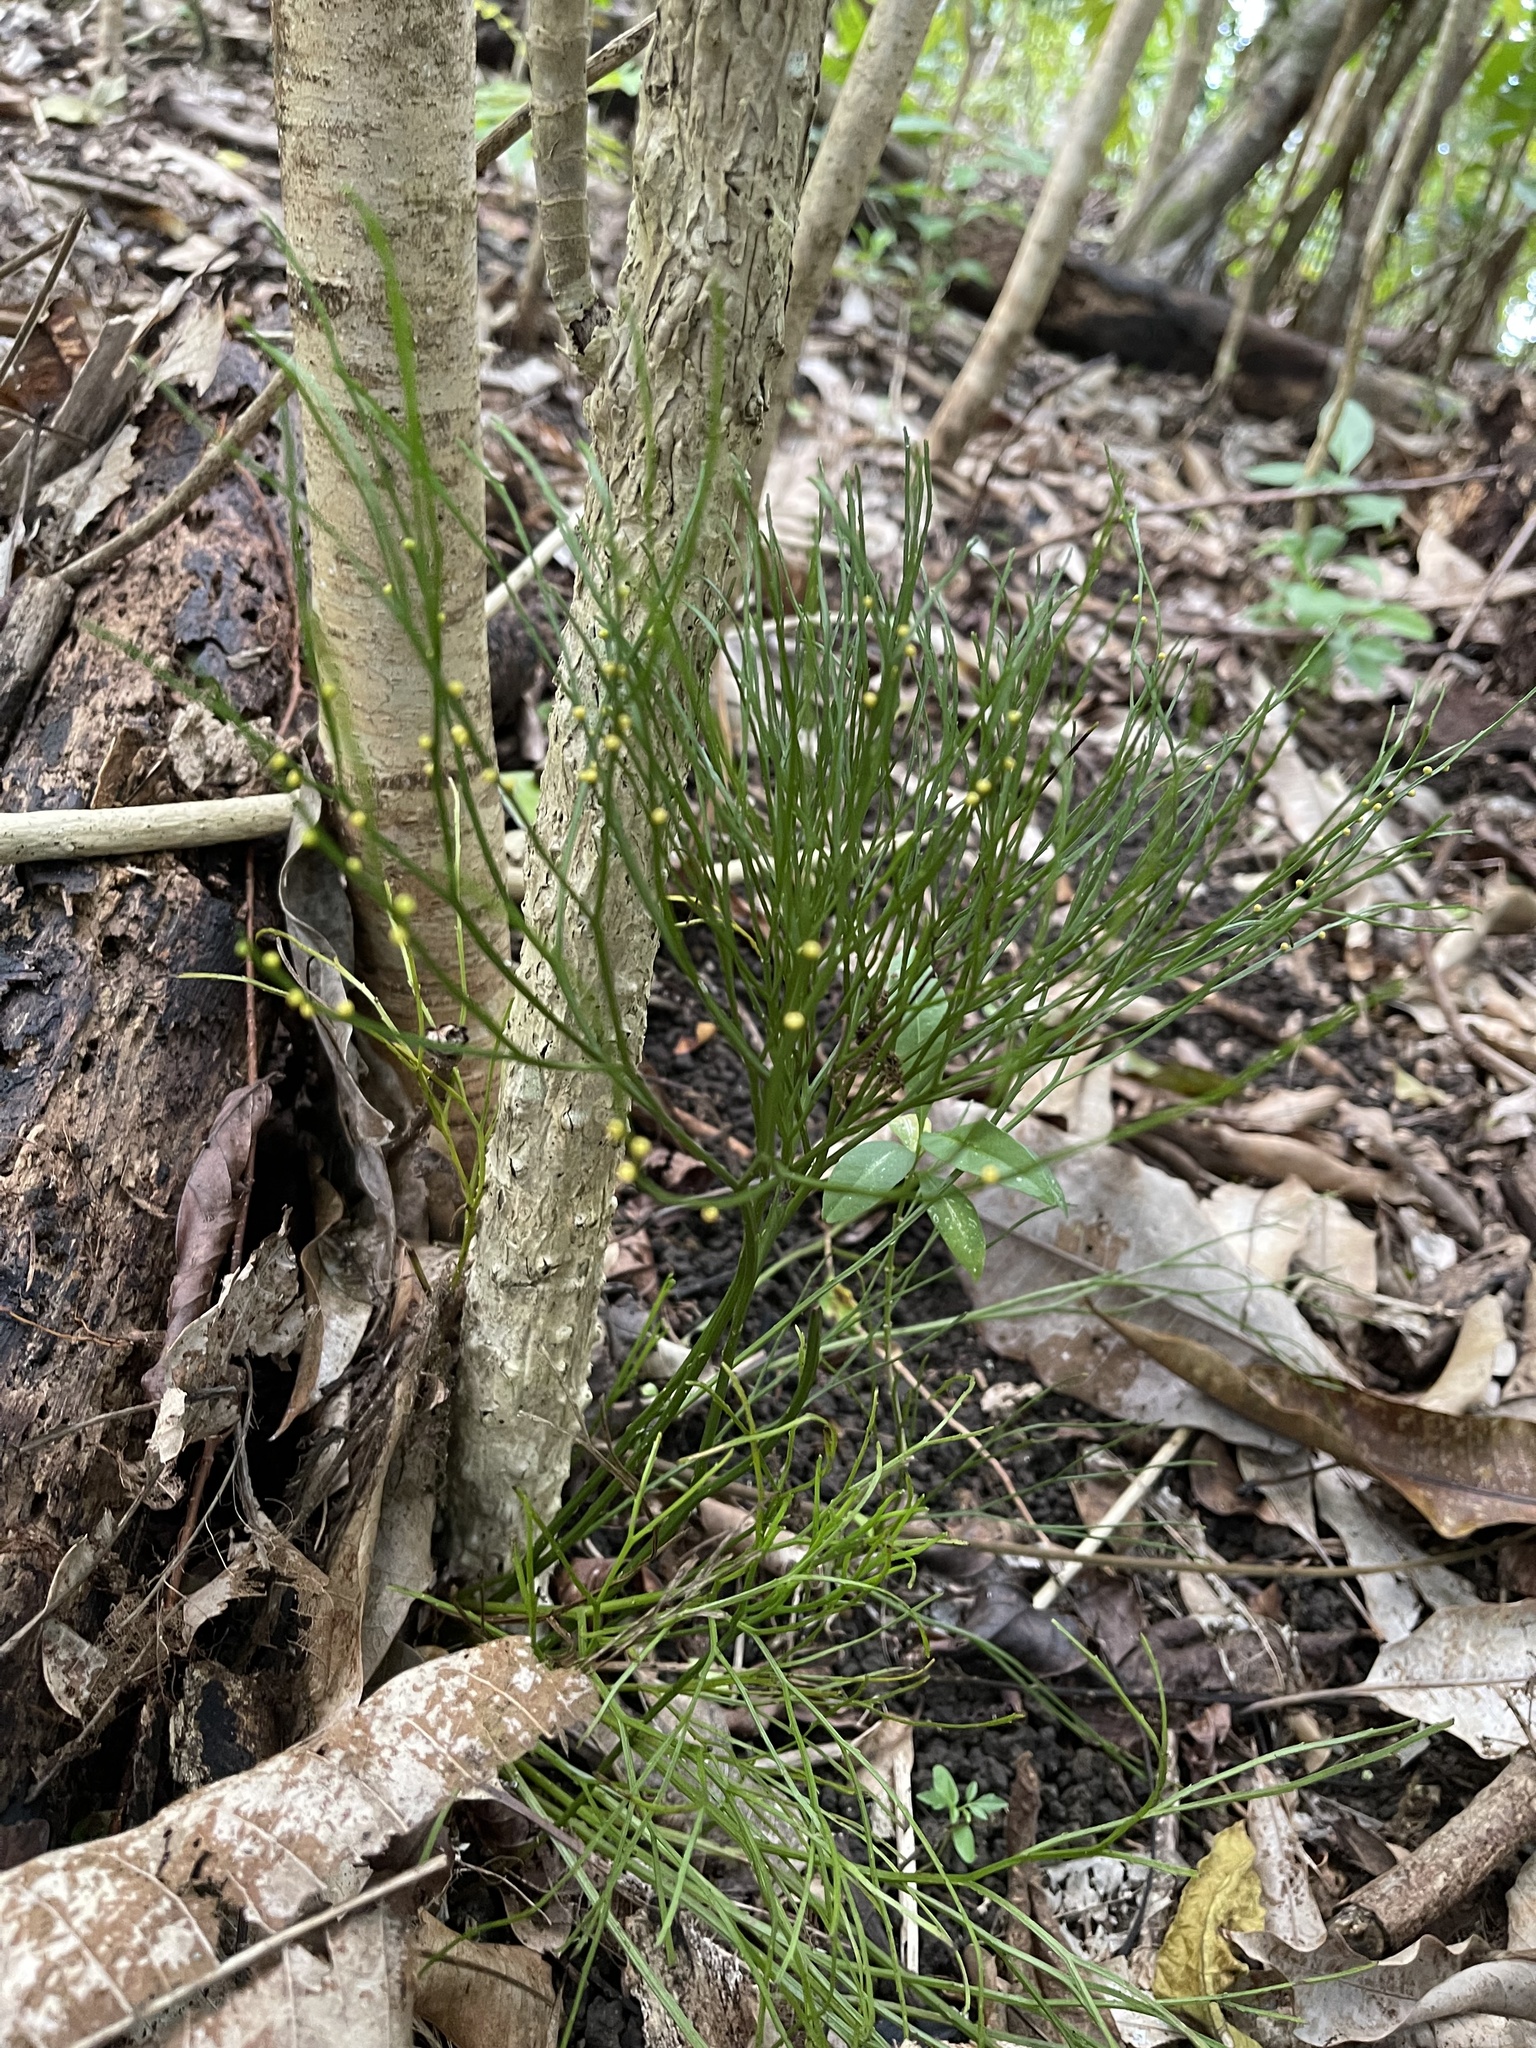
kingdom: Plantae
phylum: Tracheophyta
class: Polypodiopsida
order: Psilotales
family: Psilotaceae
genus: Psilotum
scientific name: Psilotum nudum
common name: Skeleton fork fern
